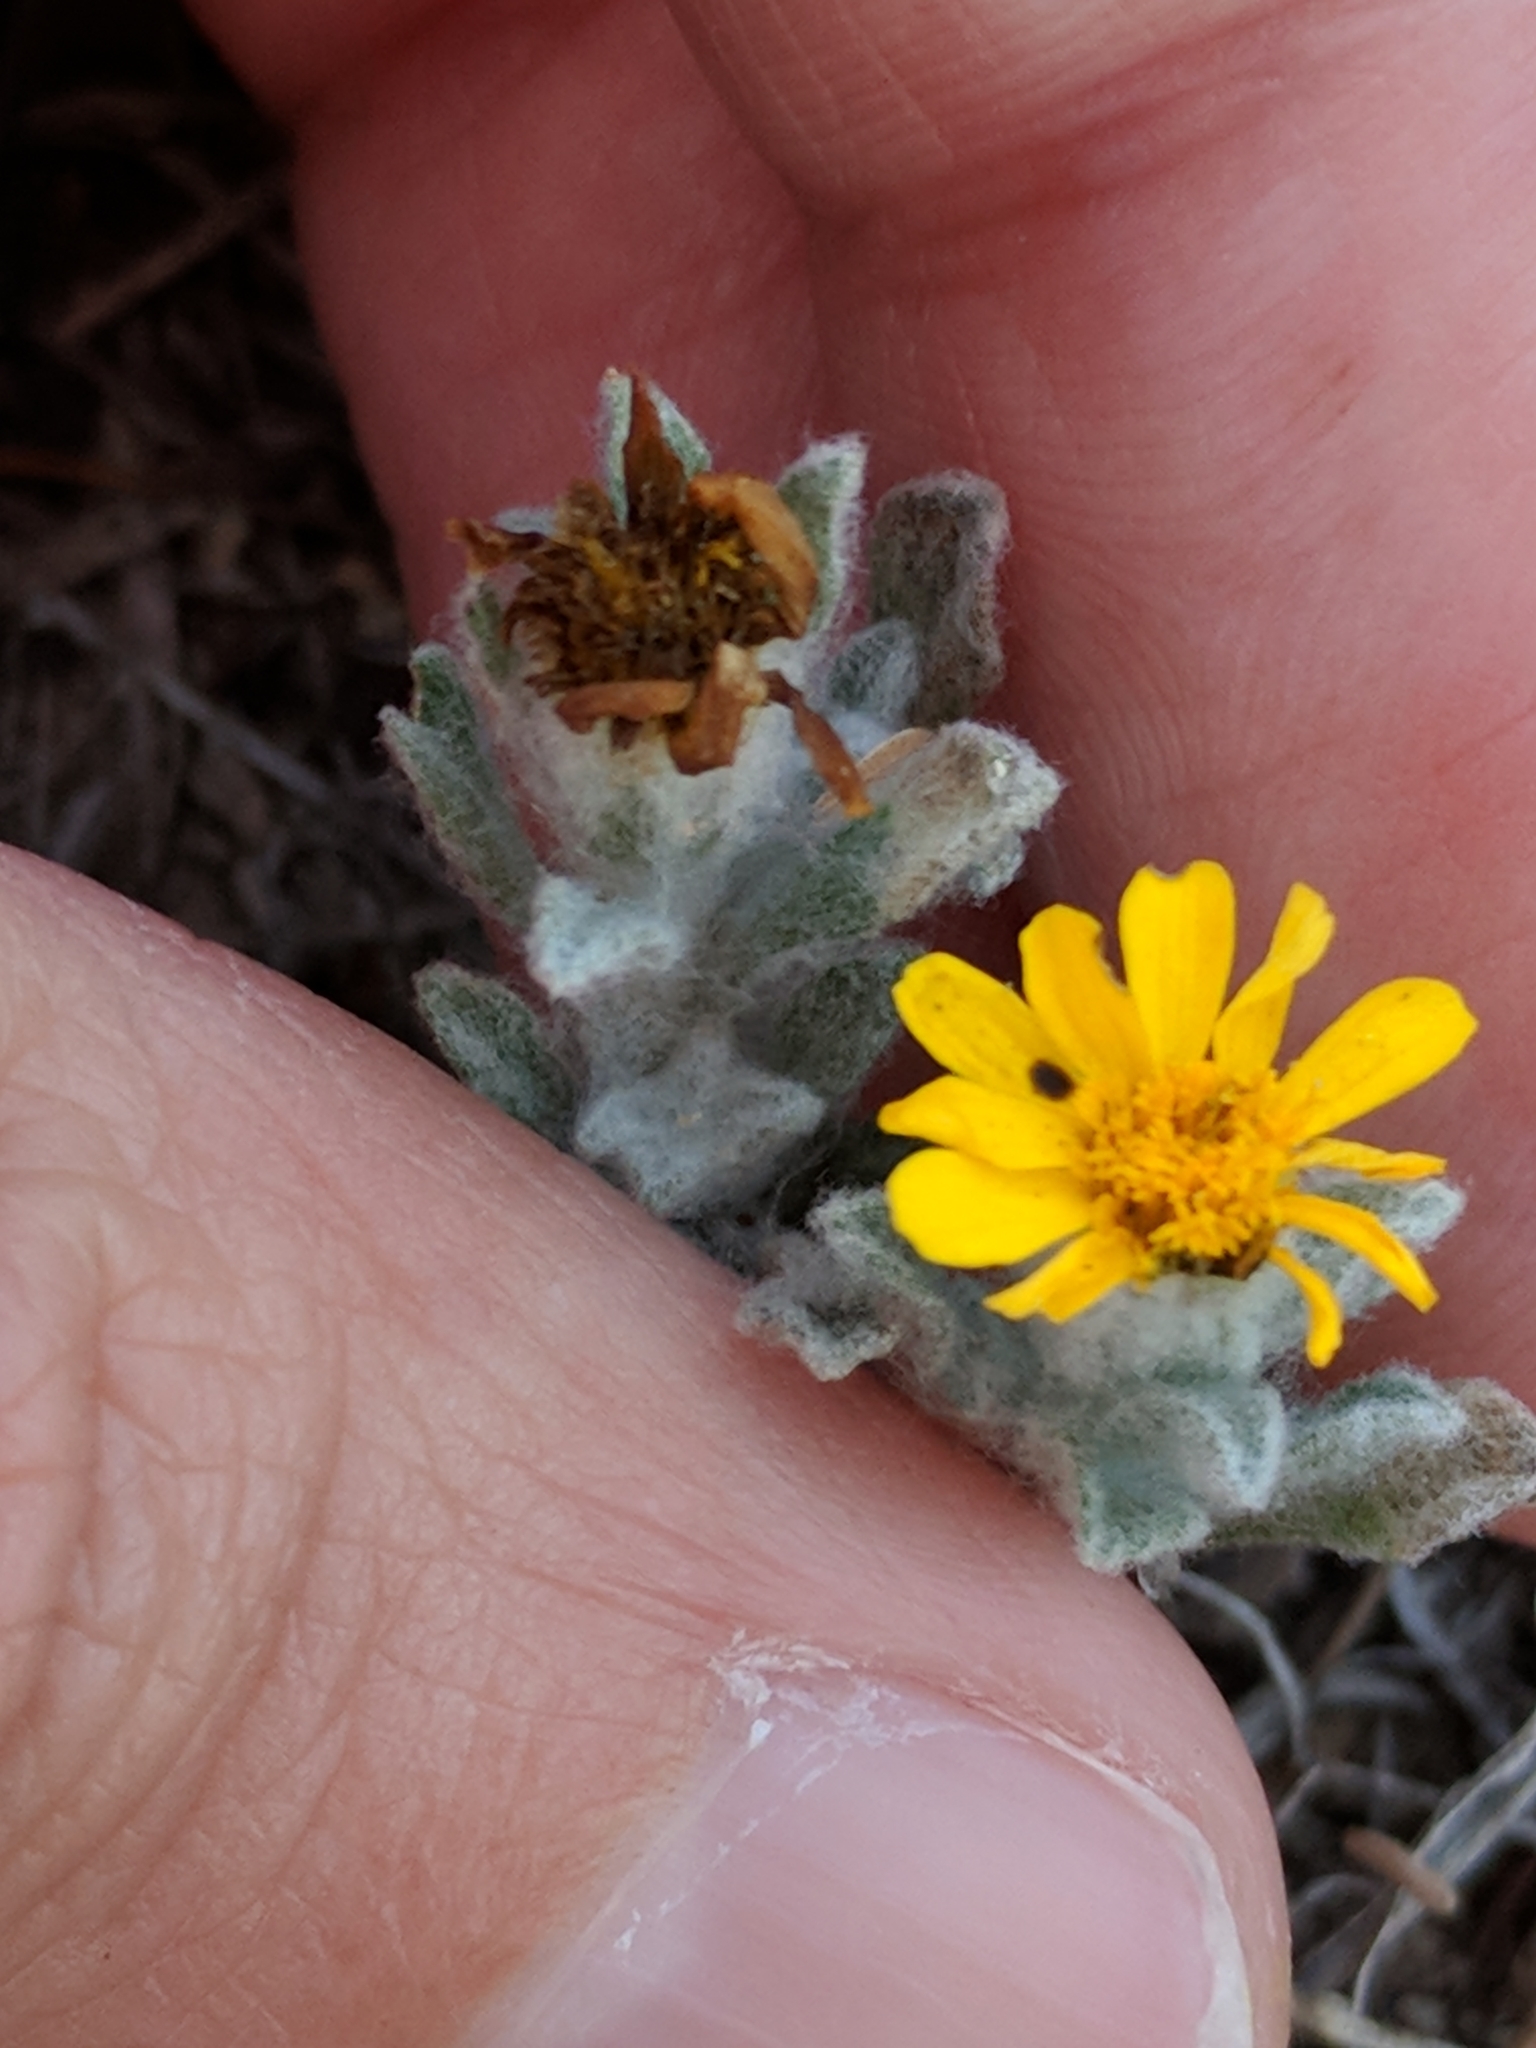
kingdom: Plantae
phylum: Tracheophyta
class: Magnoliopsida
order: Asterales
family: Asteraceae
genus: Thymophylla
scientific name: Thymophylla micropoides
